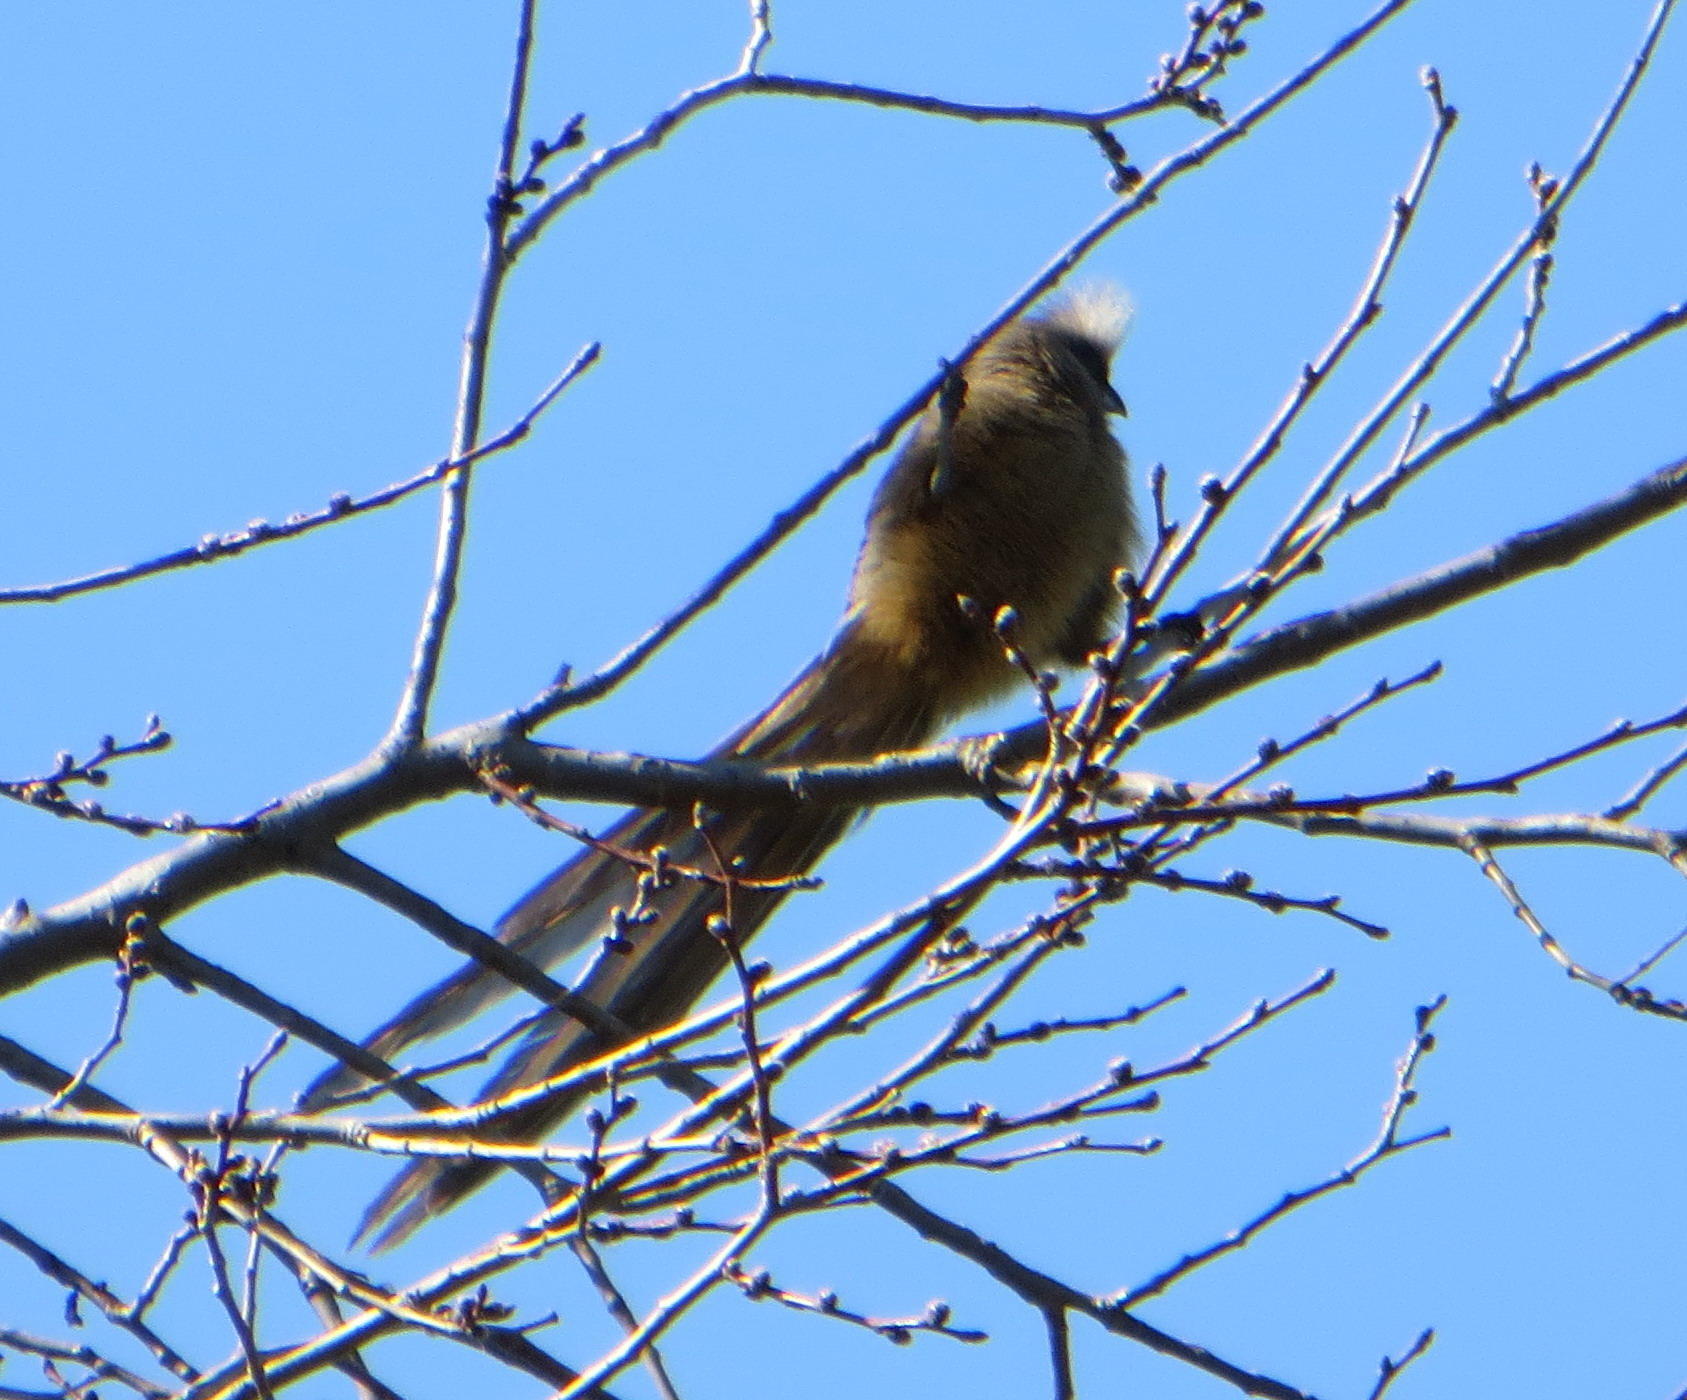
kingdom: Animalia
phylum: Chordata
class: Aves
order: Coliiformes
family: Coliidae
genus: Colius
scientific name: Colius striatus
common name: Speckled mousebird
